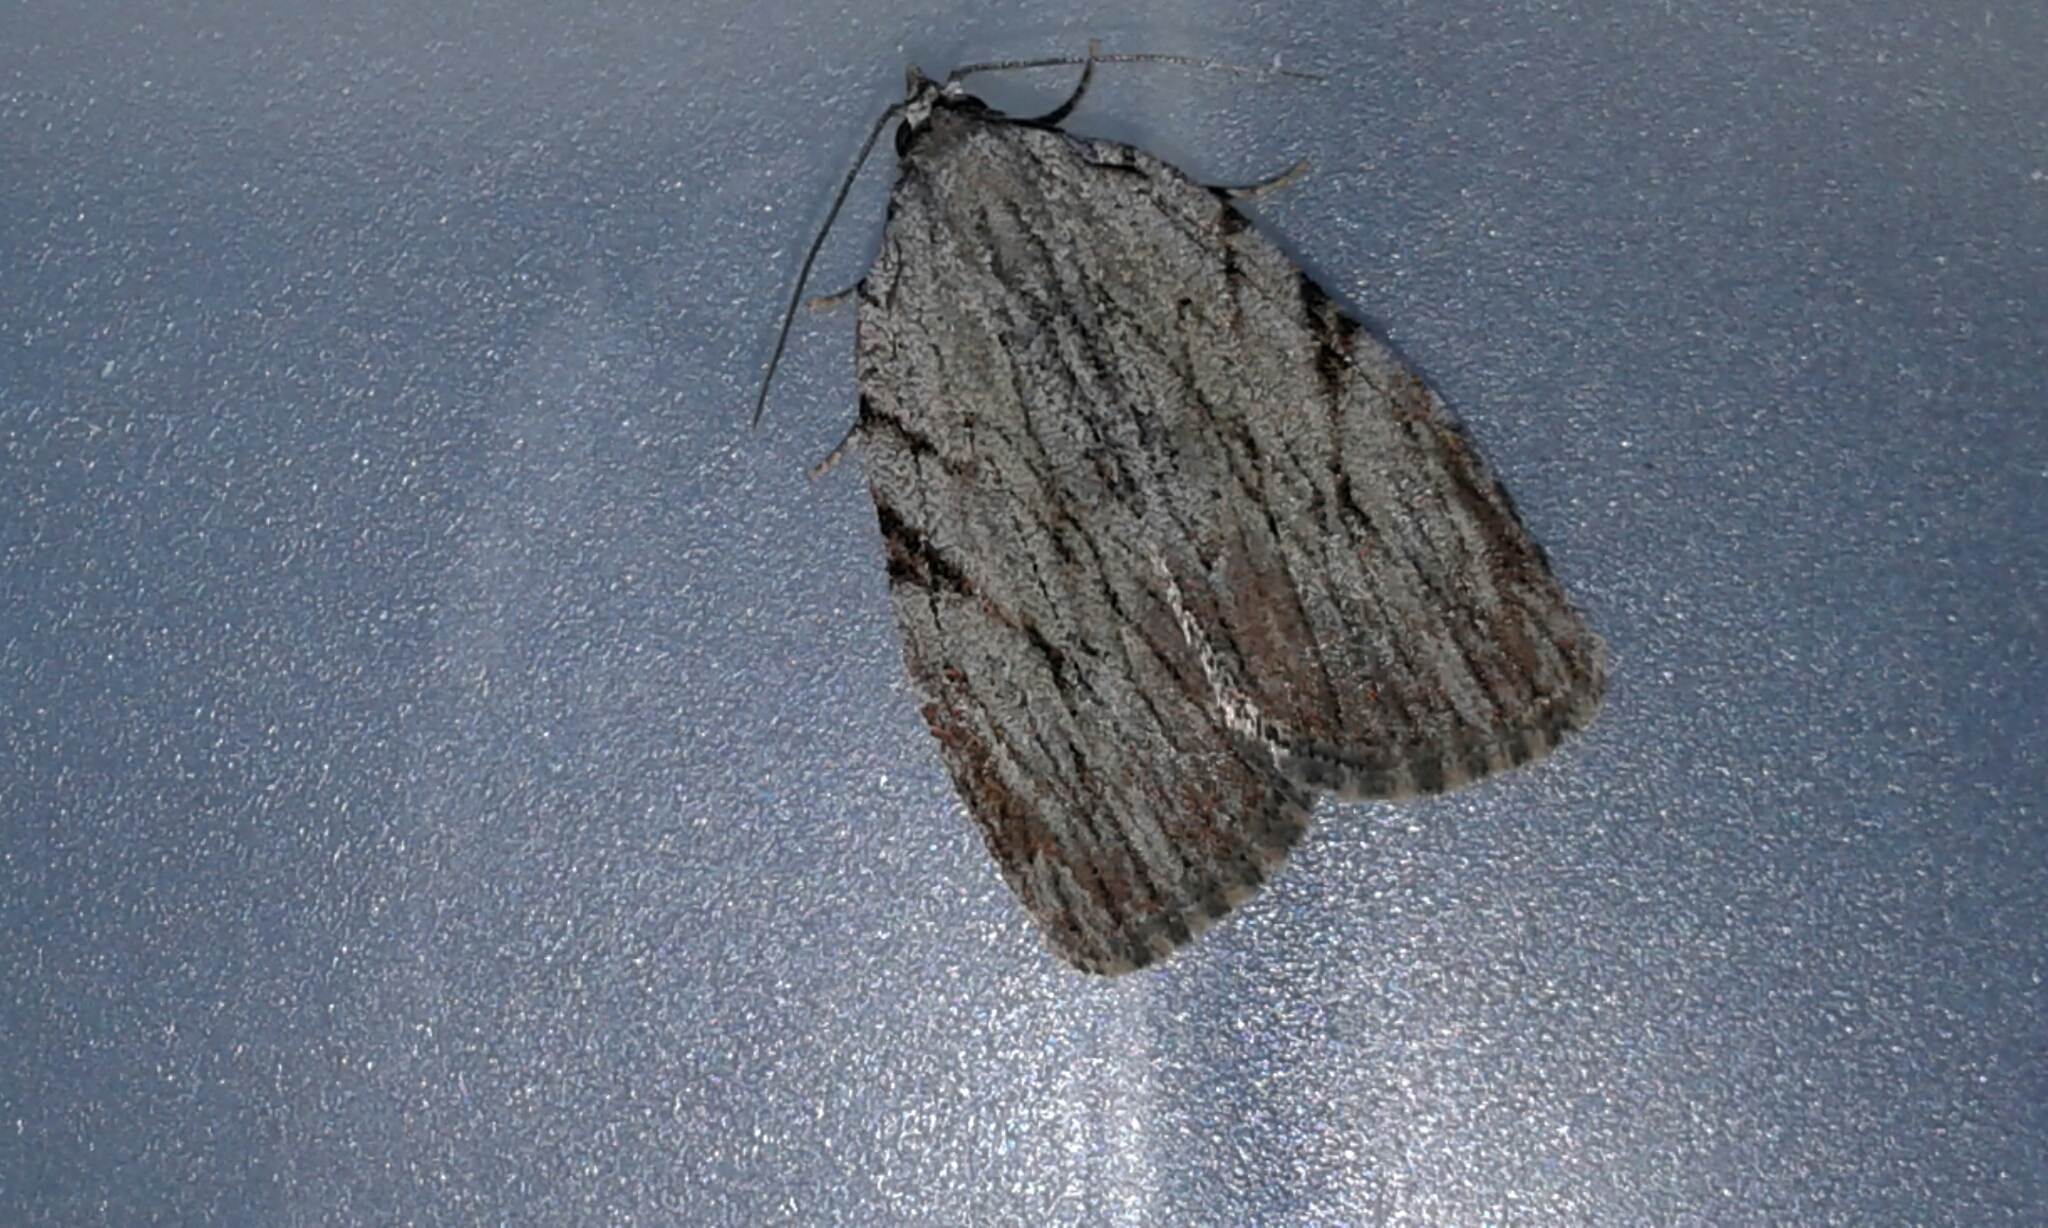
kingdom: Animalia
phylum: Arthropoda
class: Insecta
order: Lepidoptera
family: Noctuidae
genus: Balsa
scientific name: Balsa tristrigella
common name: Three-lined balsa moth
